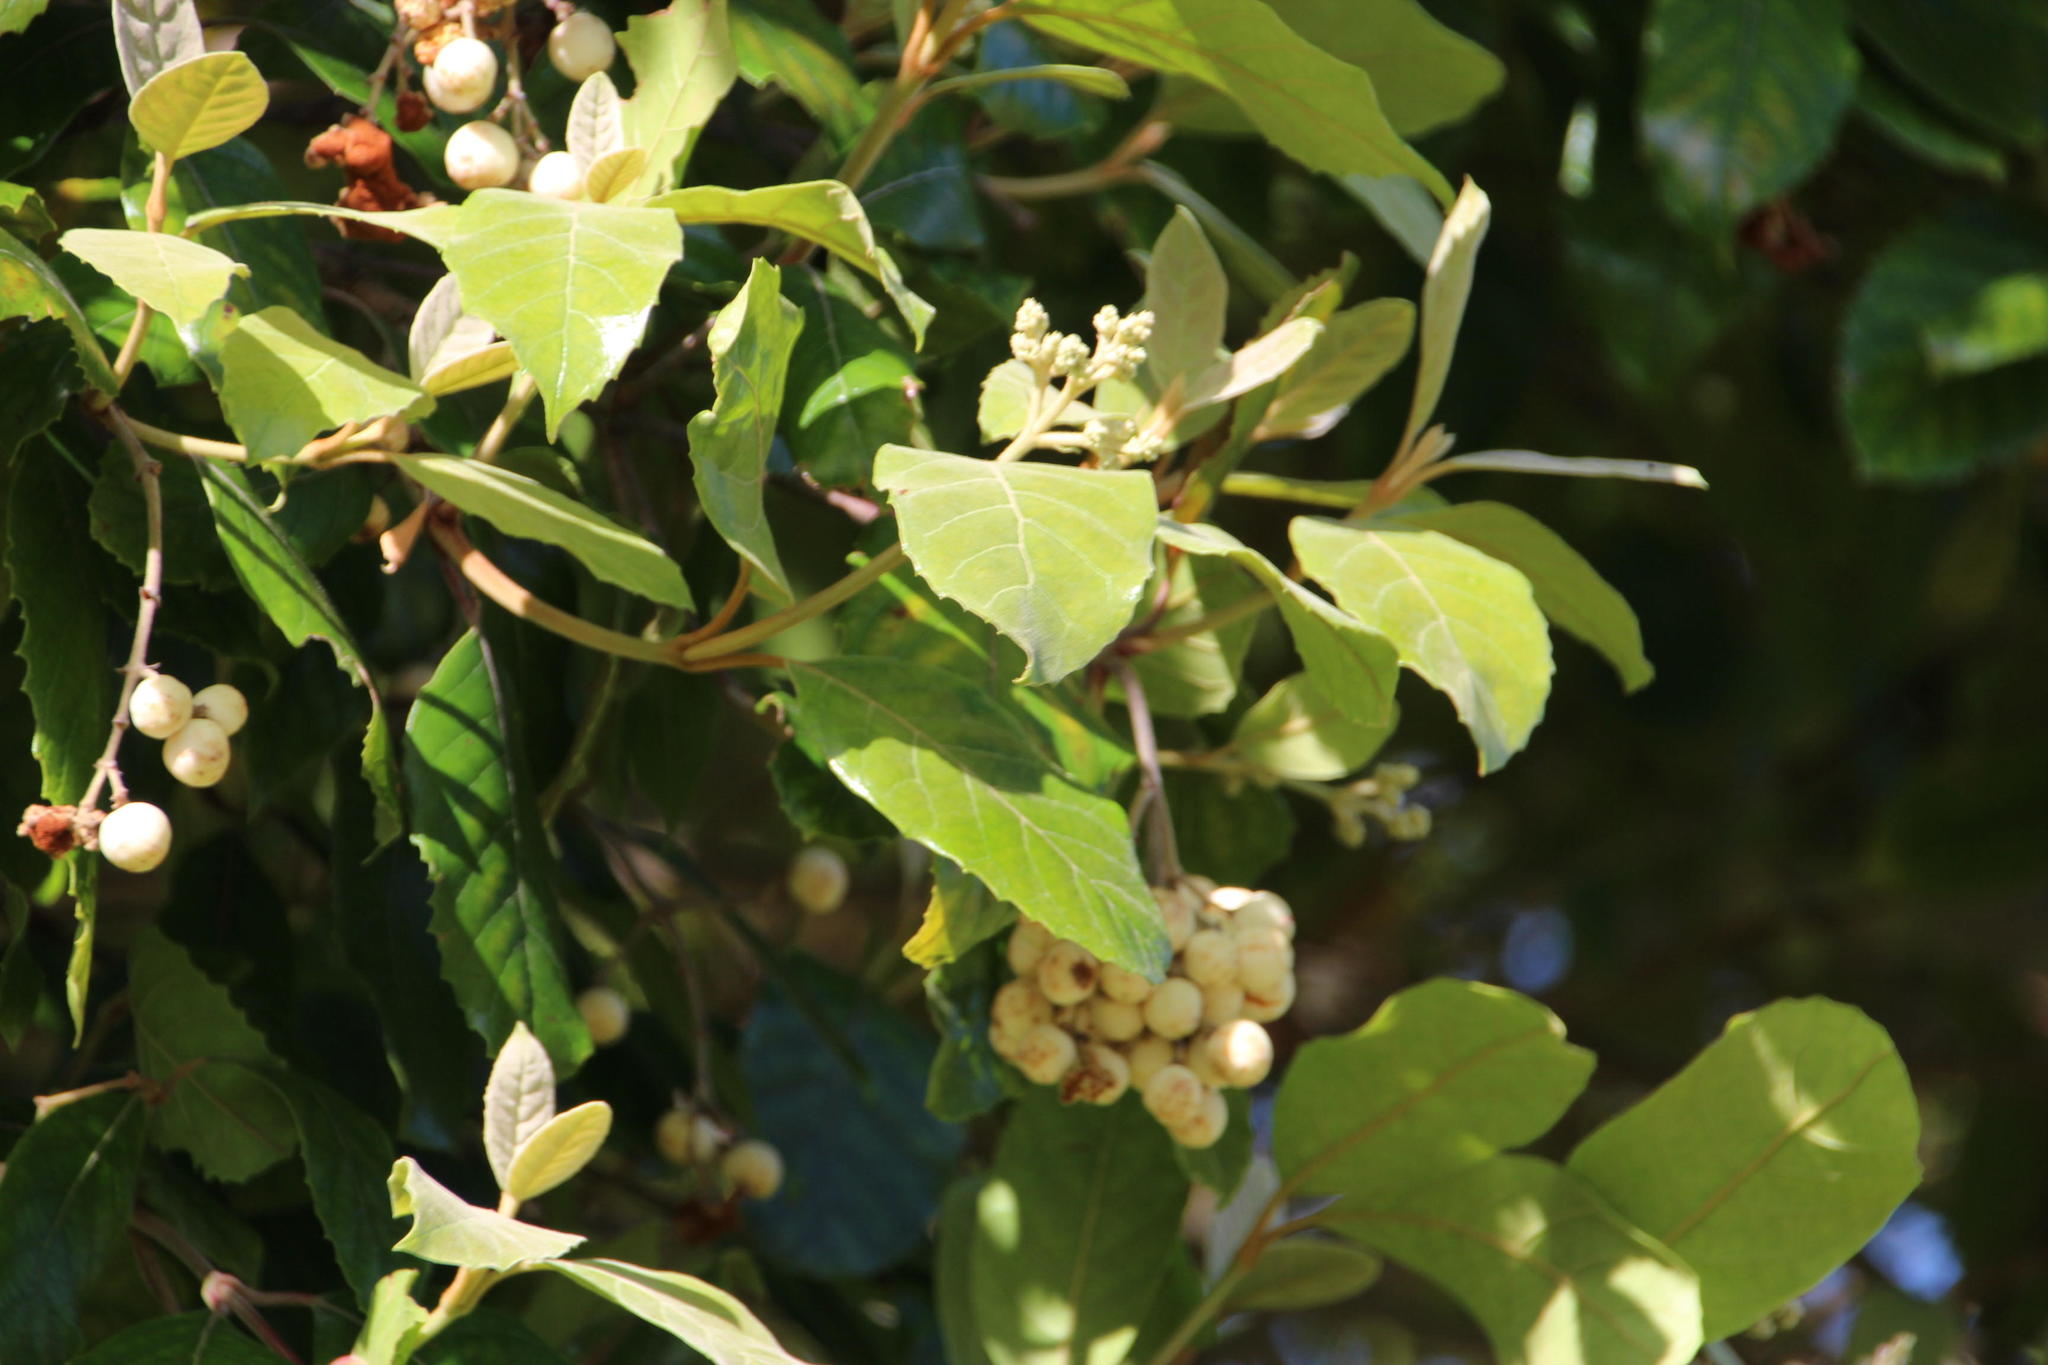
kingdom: Plantae
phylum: Tracheophyta
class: Magnoliopsida
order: Cornales
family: Curtisiaceae
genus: Curtisia
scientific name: Curtisia dentata
